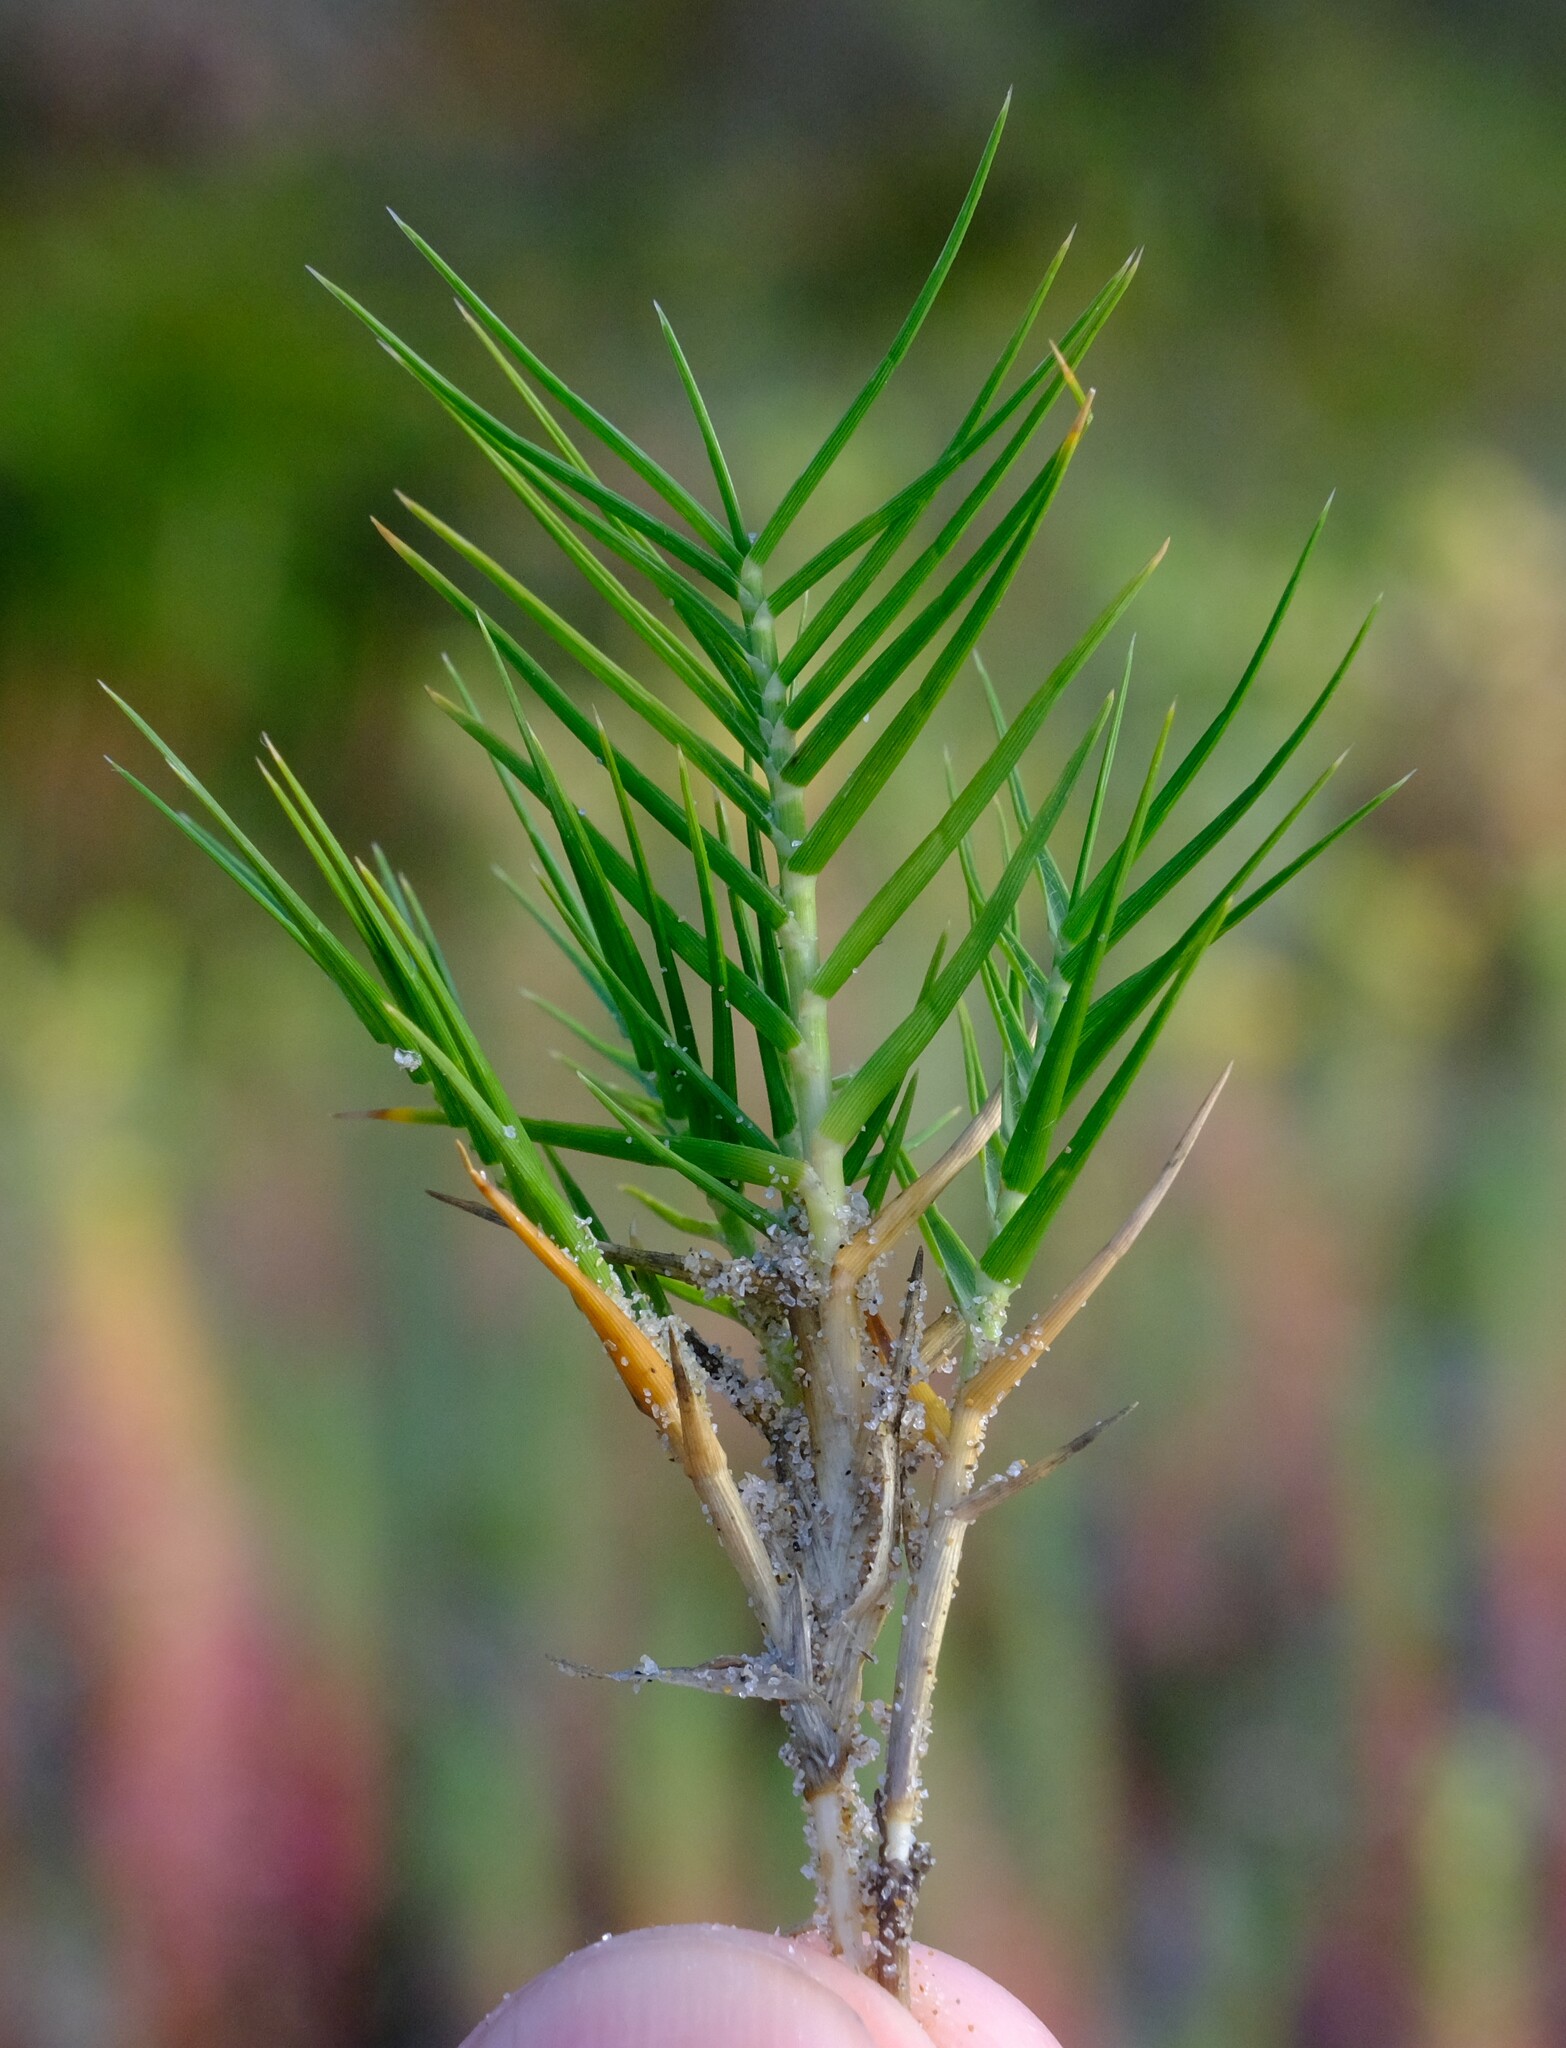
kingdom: Plantae
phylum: Tracheophyta
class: Liliopsida
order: Poales
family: Poaceae
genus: Distichlis
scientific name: Distichlis distichophylla
